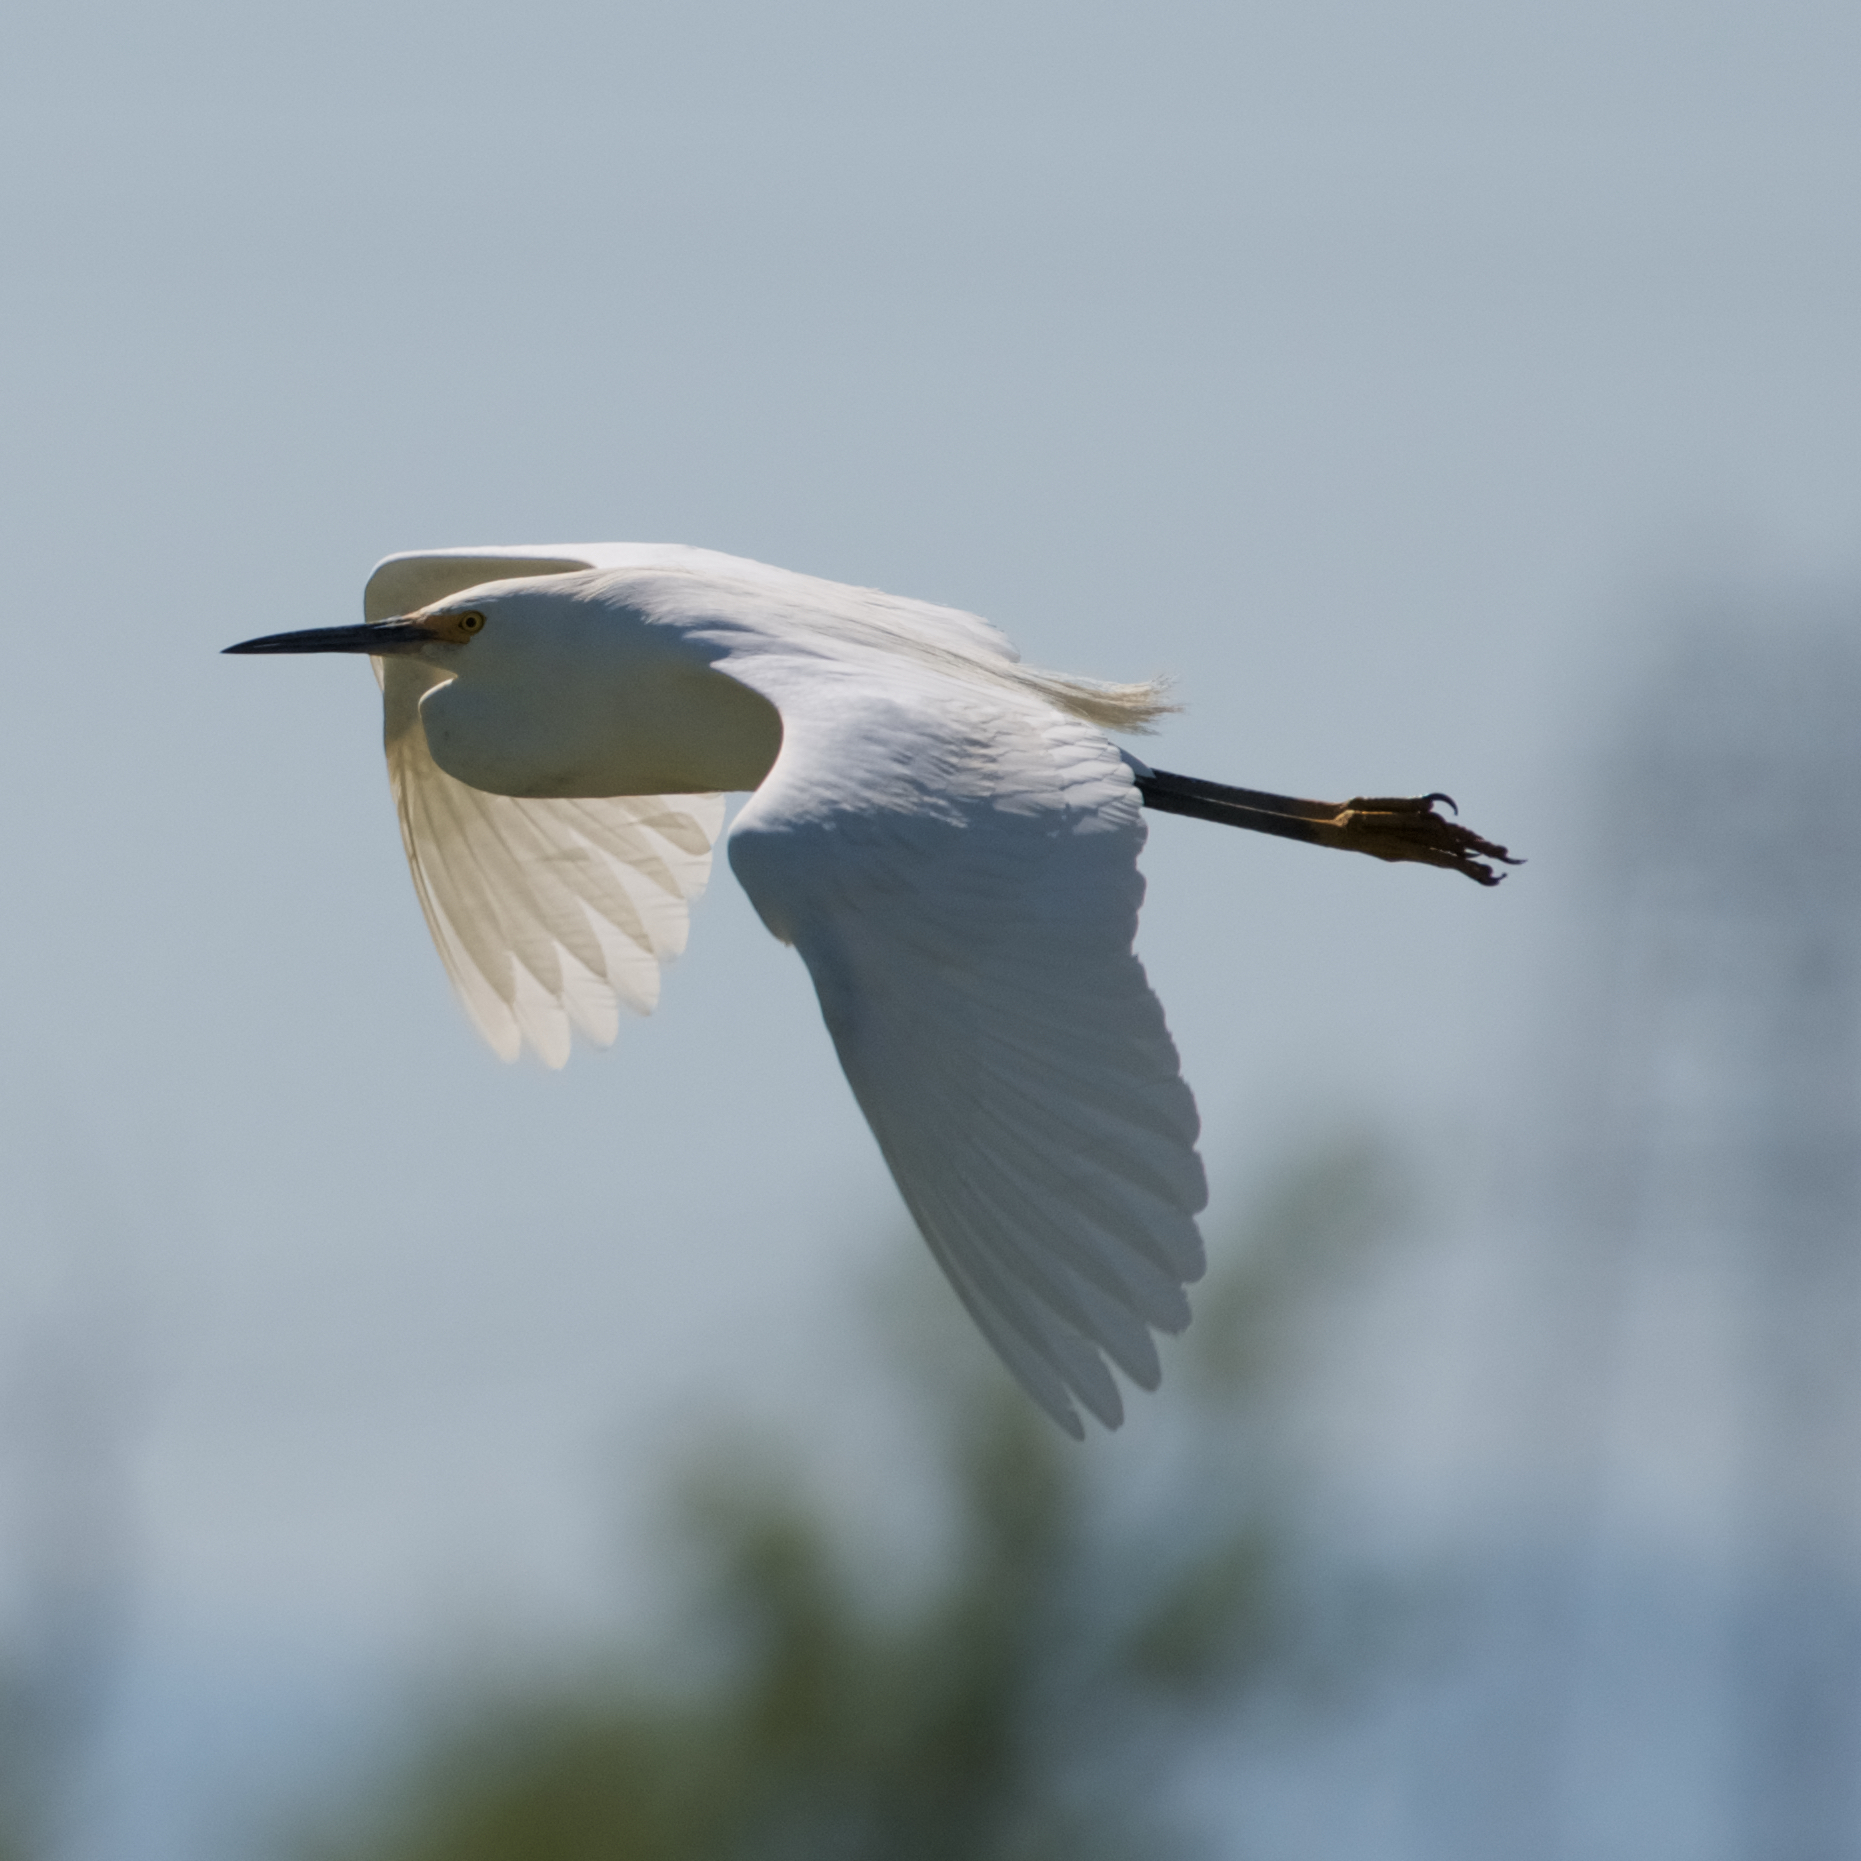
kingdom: Animalia
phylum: Chordata
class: Aves
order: Pelecaniformes
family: Ardeidae
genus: Egretta
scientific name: Egretta thula
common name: Snowy egret
